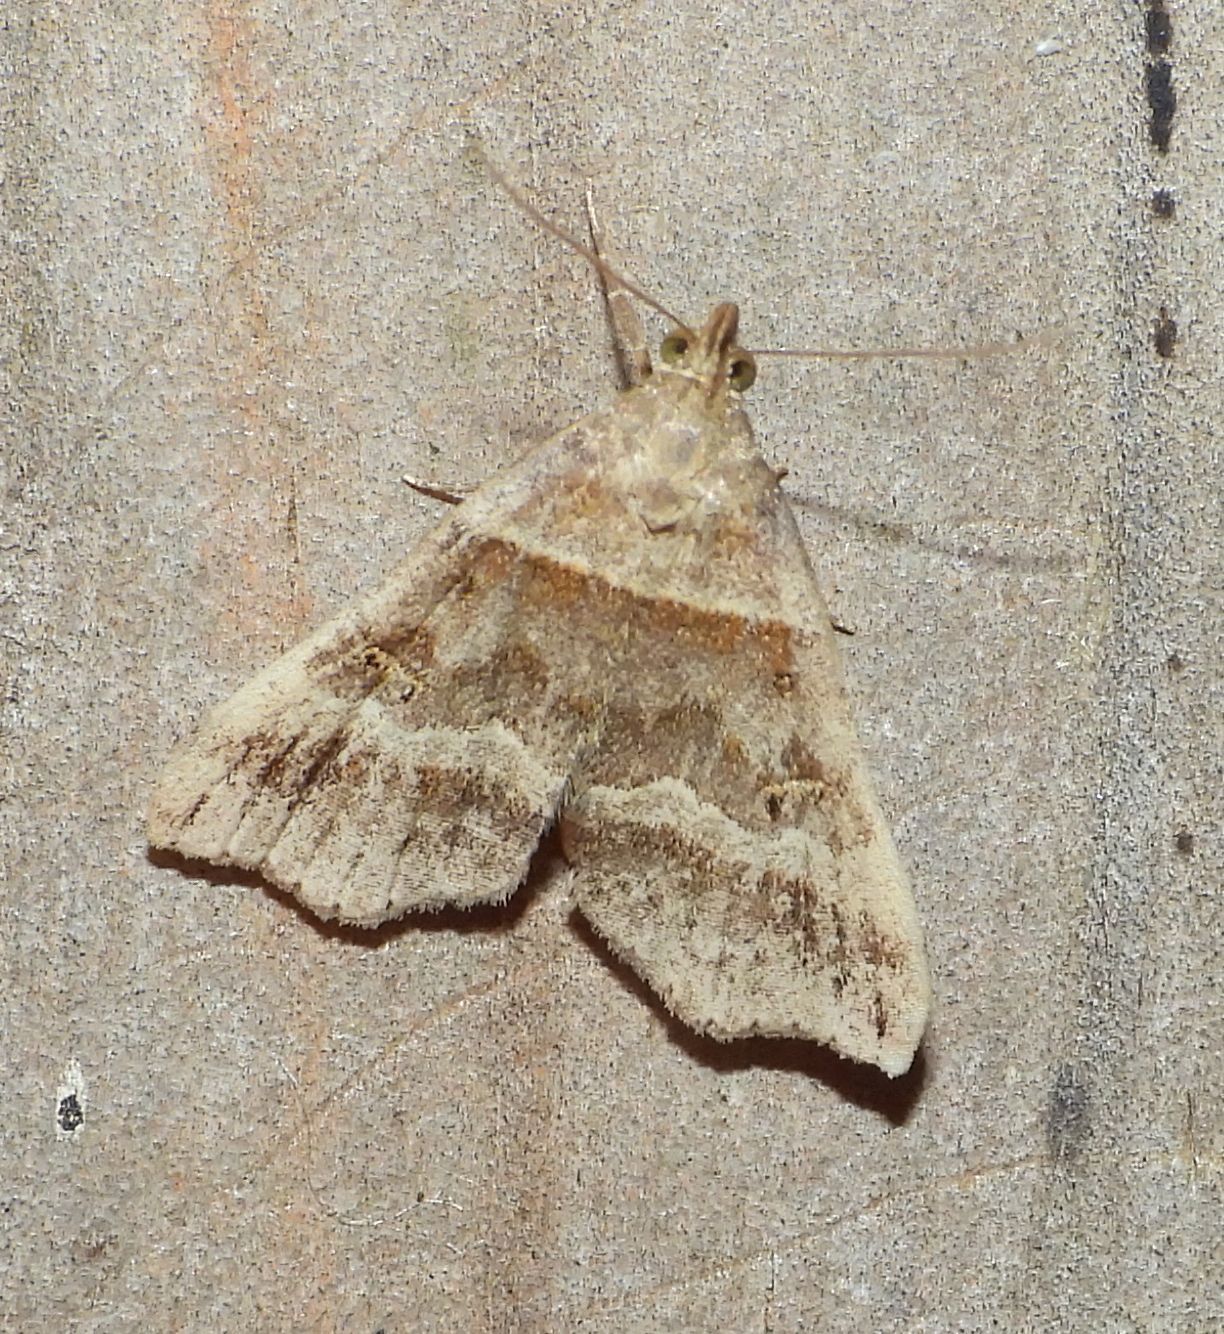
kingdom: Animalia
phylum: Arthropoda
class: Insecta
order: Lepidoptera
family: Erebidae
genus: Phaeolita
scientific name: Phaeolita pyramusalis
